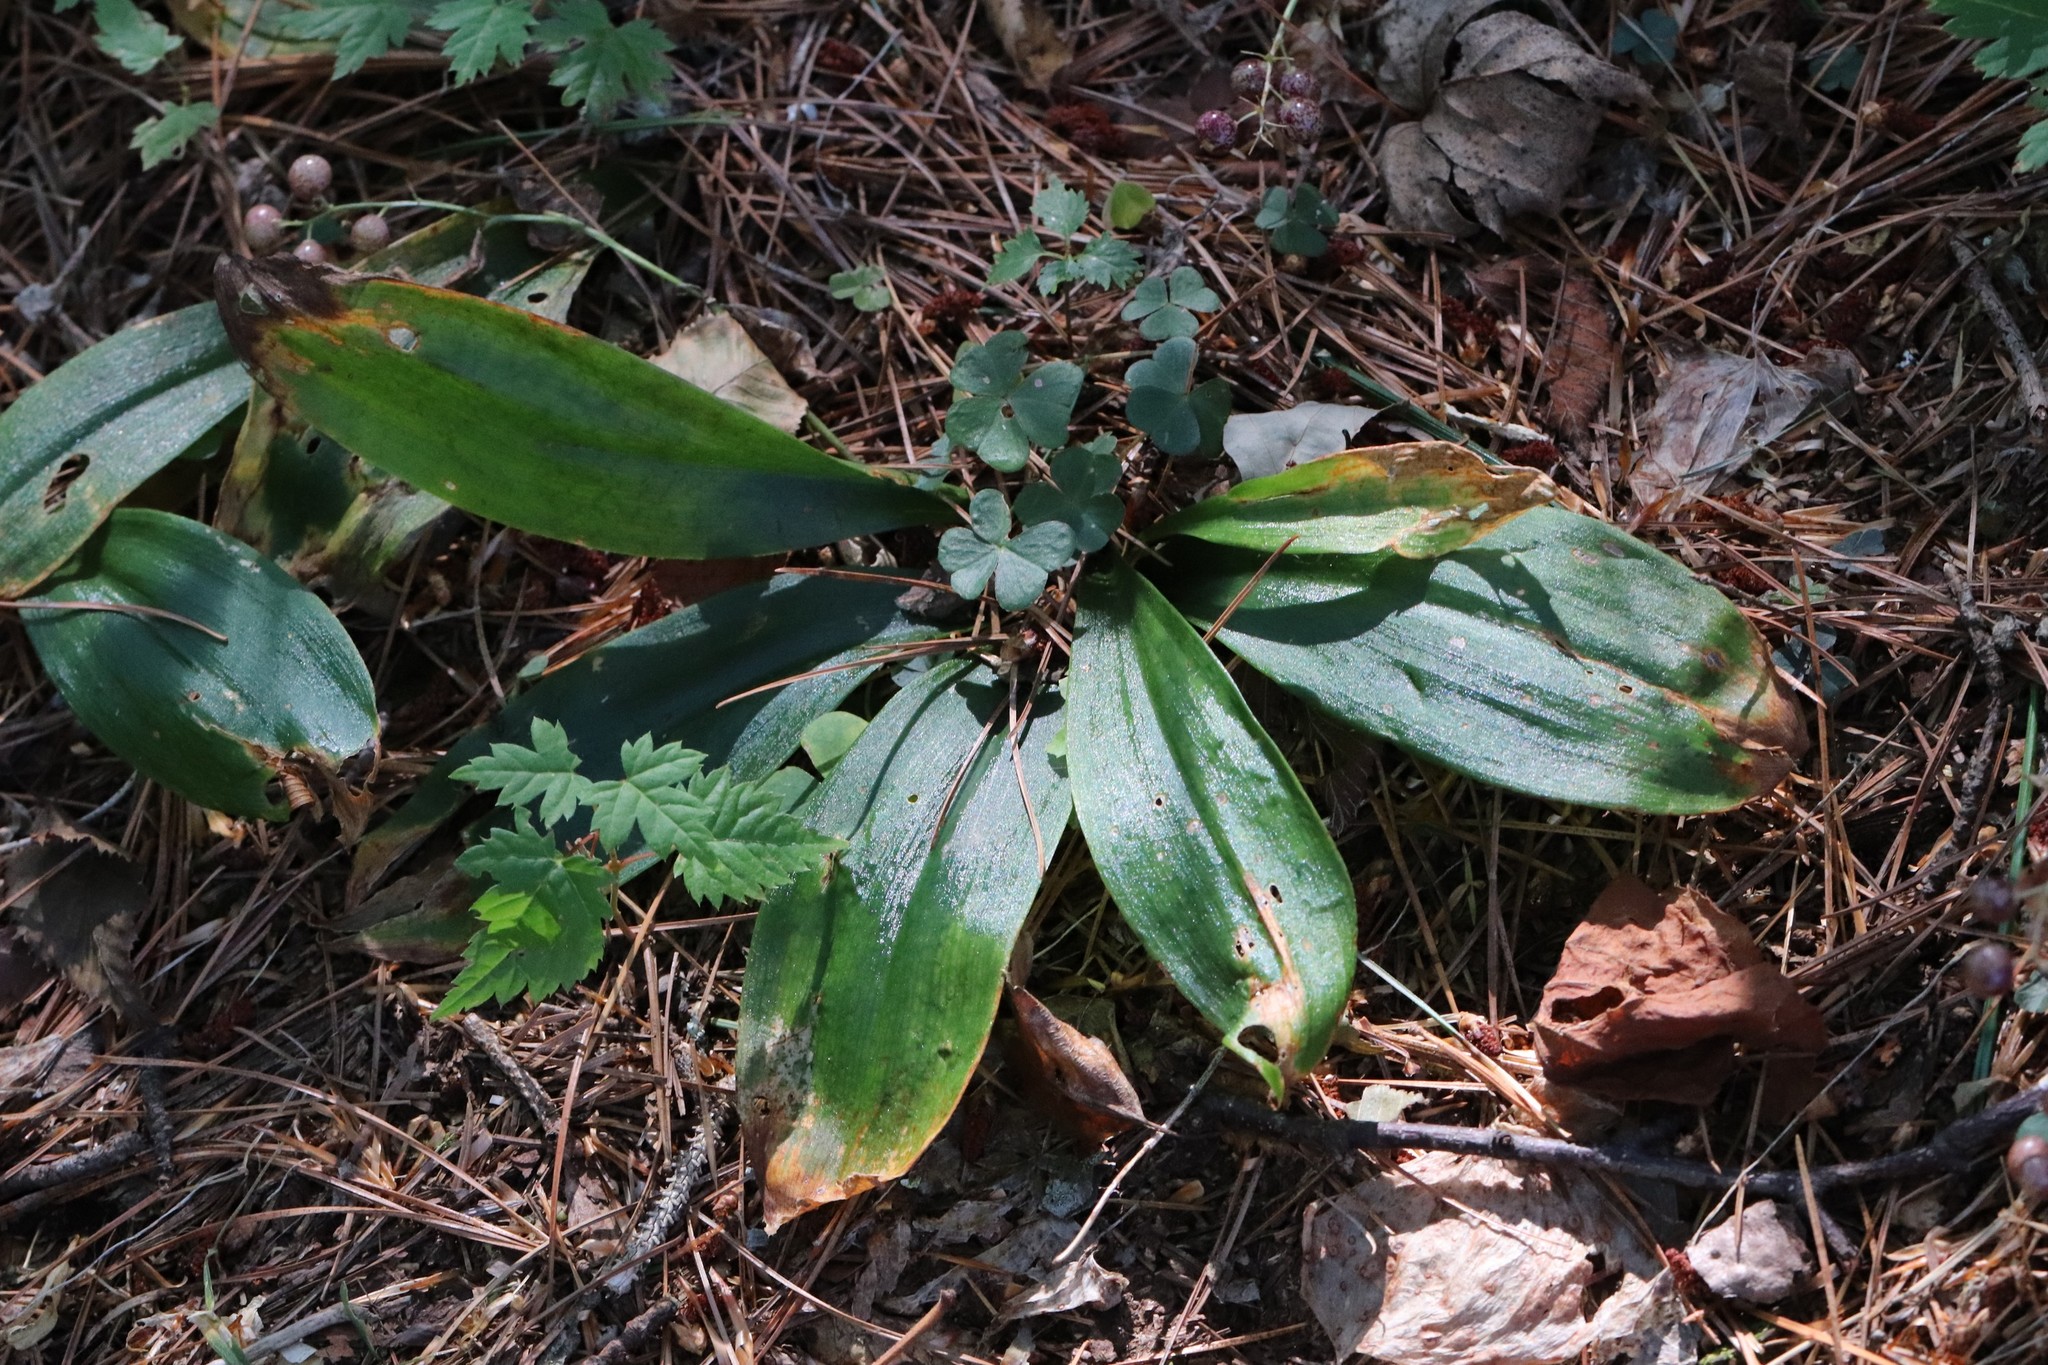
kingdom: Plantae
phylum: Tracheophyta
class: Liliopsida
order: Liliales
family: Liliaceae
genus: Clintonia
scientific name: Clintonia udensis
